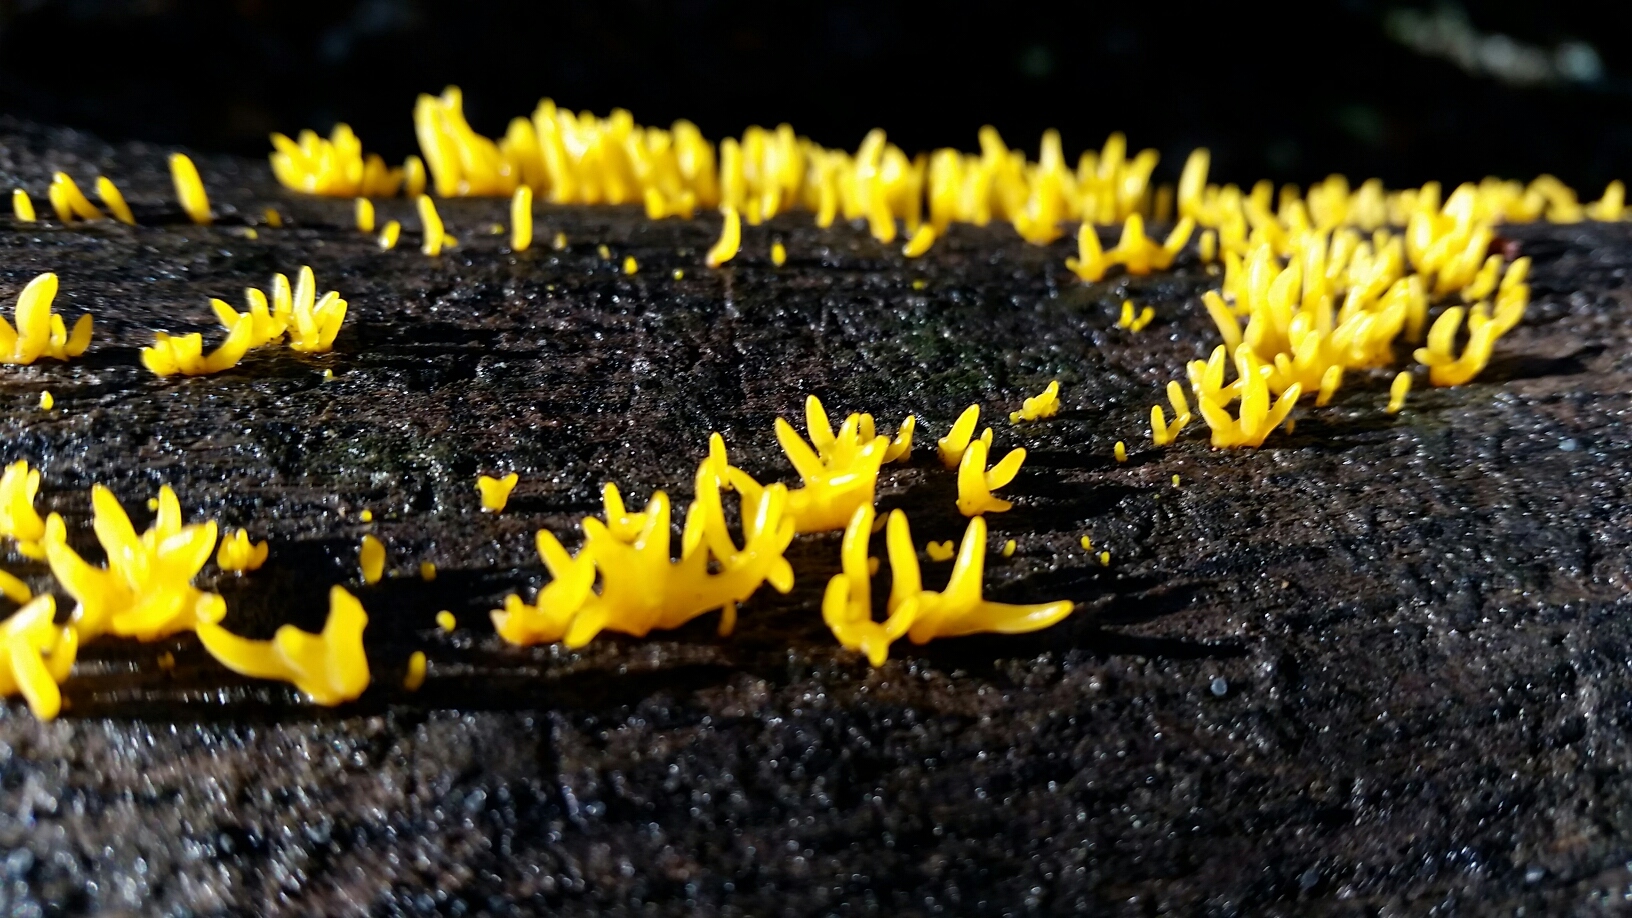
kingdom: Fungi
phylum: Basidiomycota
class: Dacrymycetes
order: Dacrymycetales
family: Dacrymycetaceae
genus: Calocera
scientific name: Calocera cornea
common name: Small stagshorn
